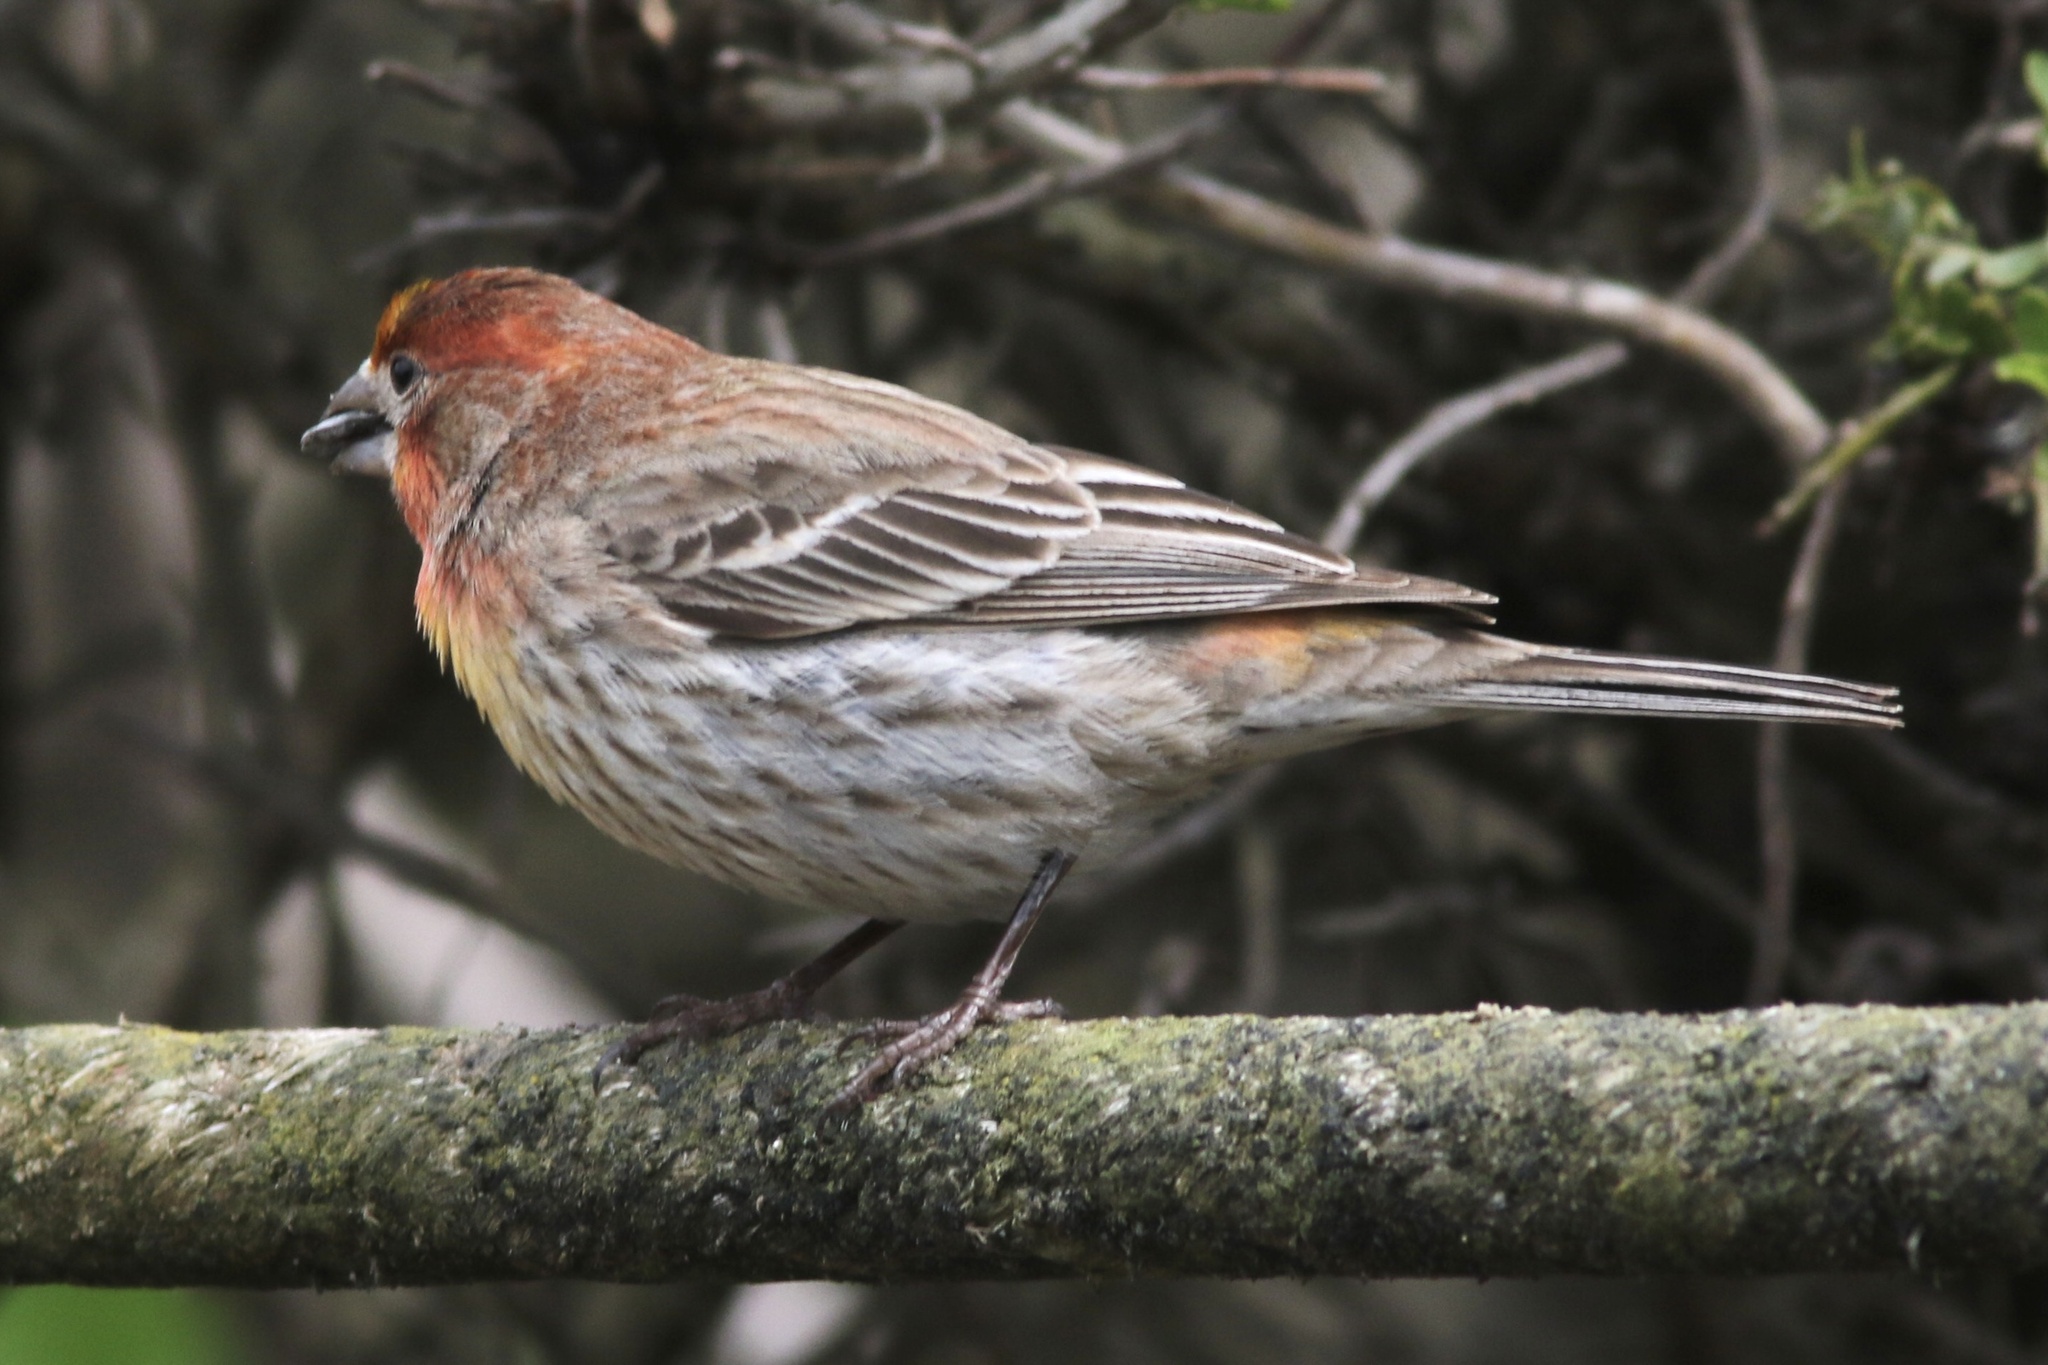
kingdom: Animalia
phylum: Chordata
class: Aves
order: Passeriformes
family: Fringillidae
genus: Haemorhous
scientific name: Haemorhous mexicanus
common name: House finch
